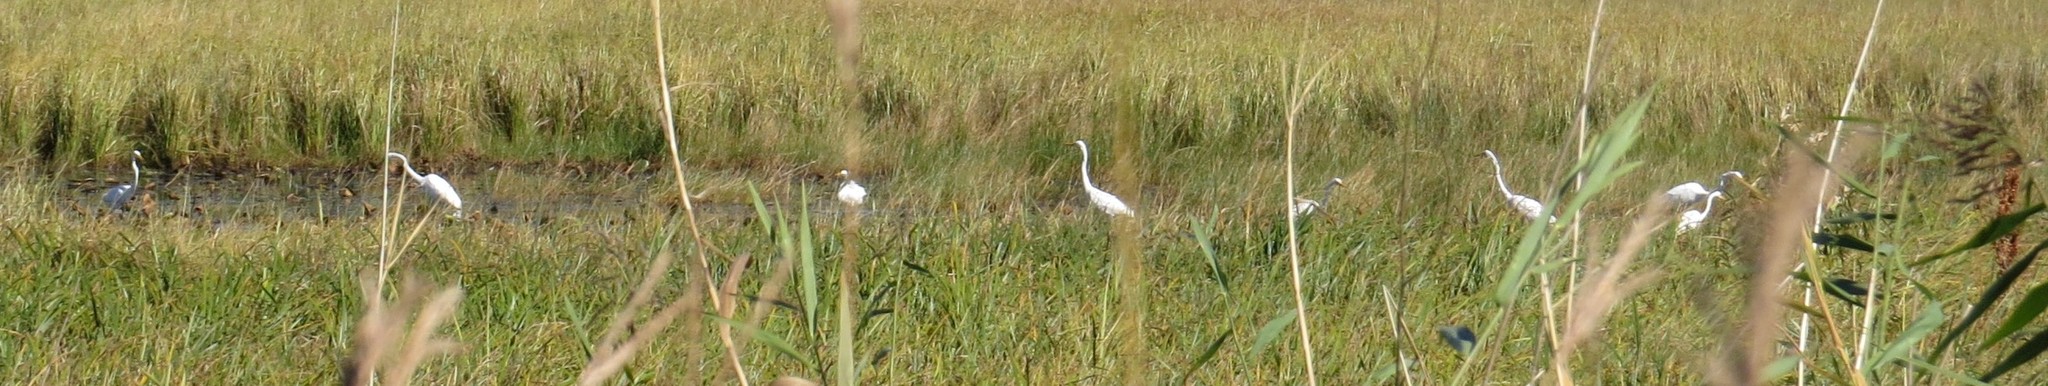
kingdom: Animalia
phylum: Chordata
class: Aves
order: Pelecaniformes
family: Ardeidae
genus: Ardea
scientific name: Ardea alba
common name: Great egret
